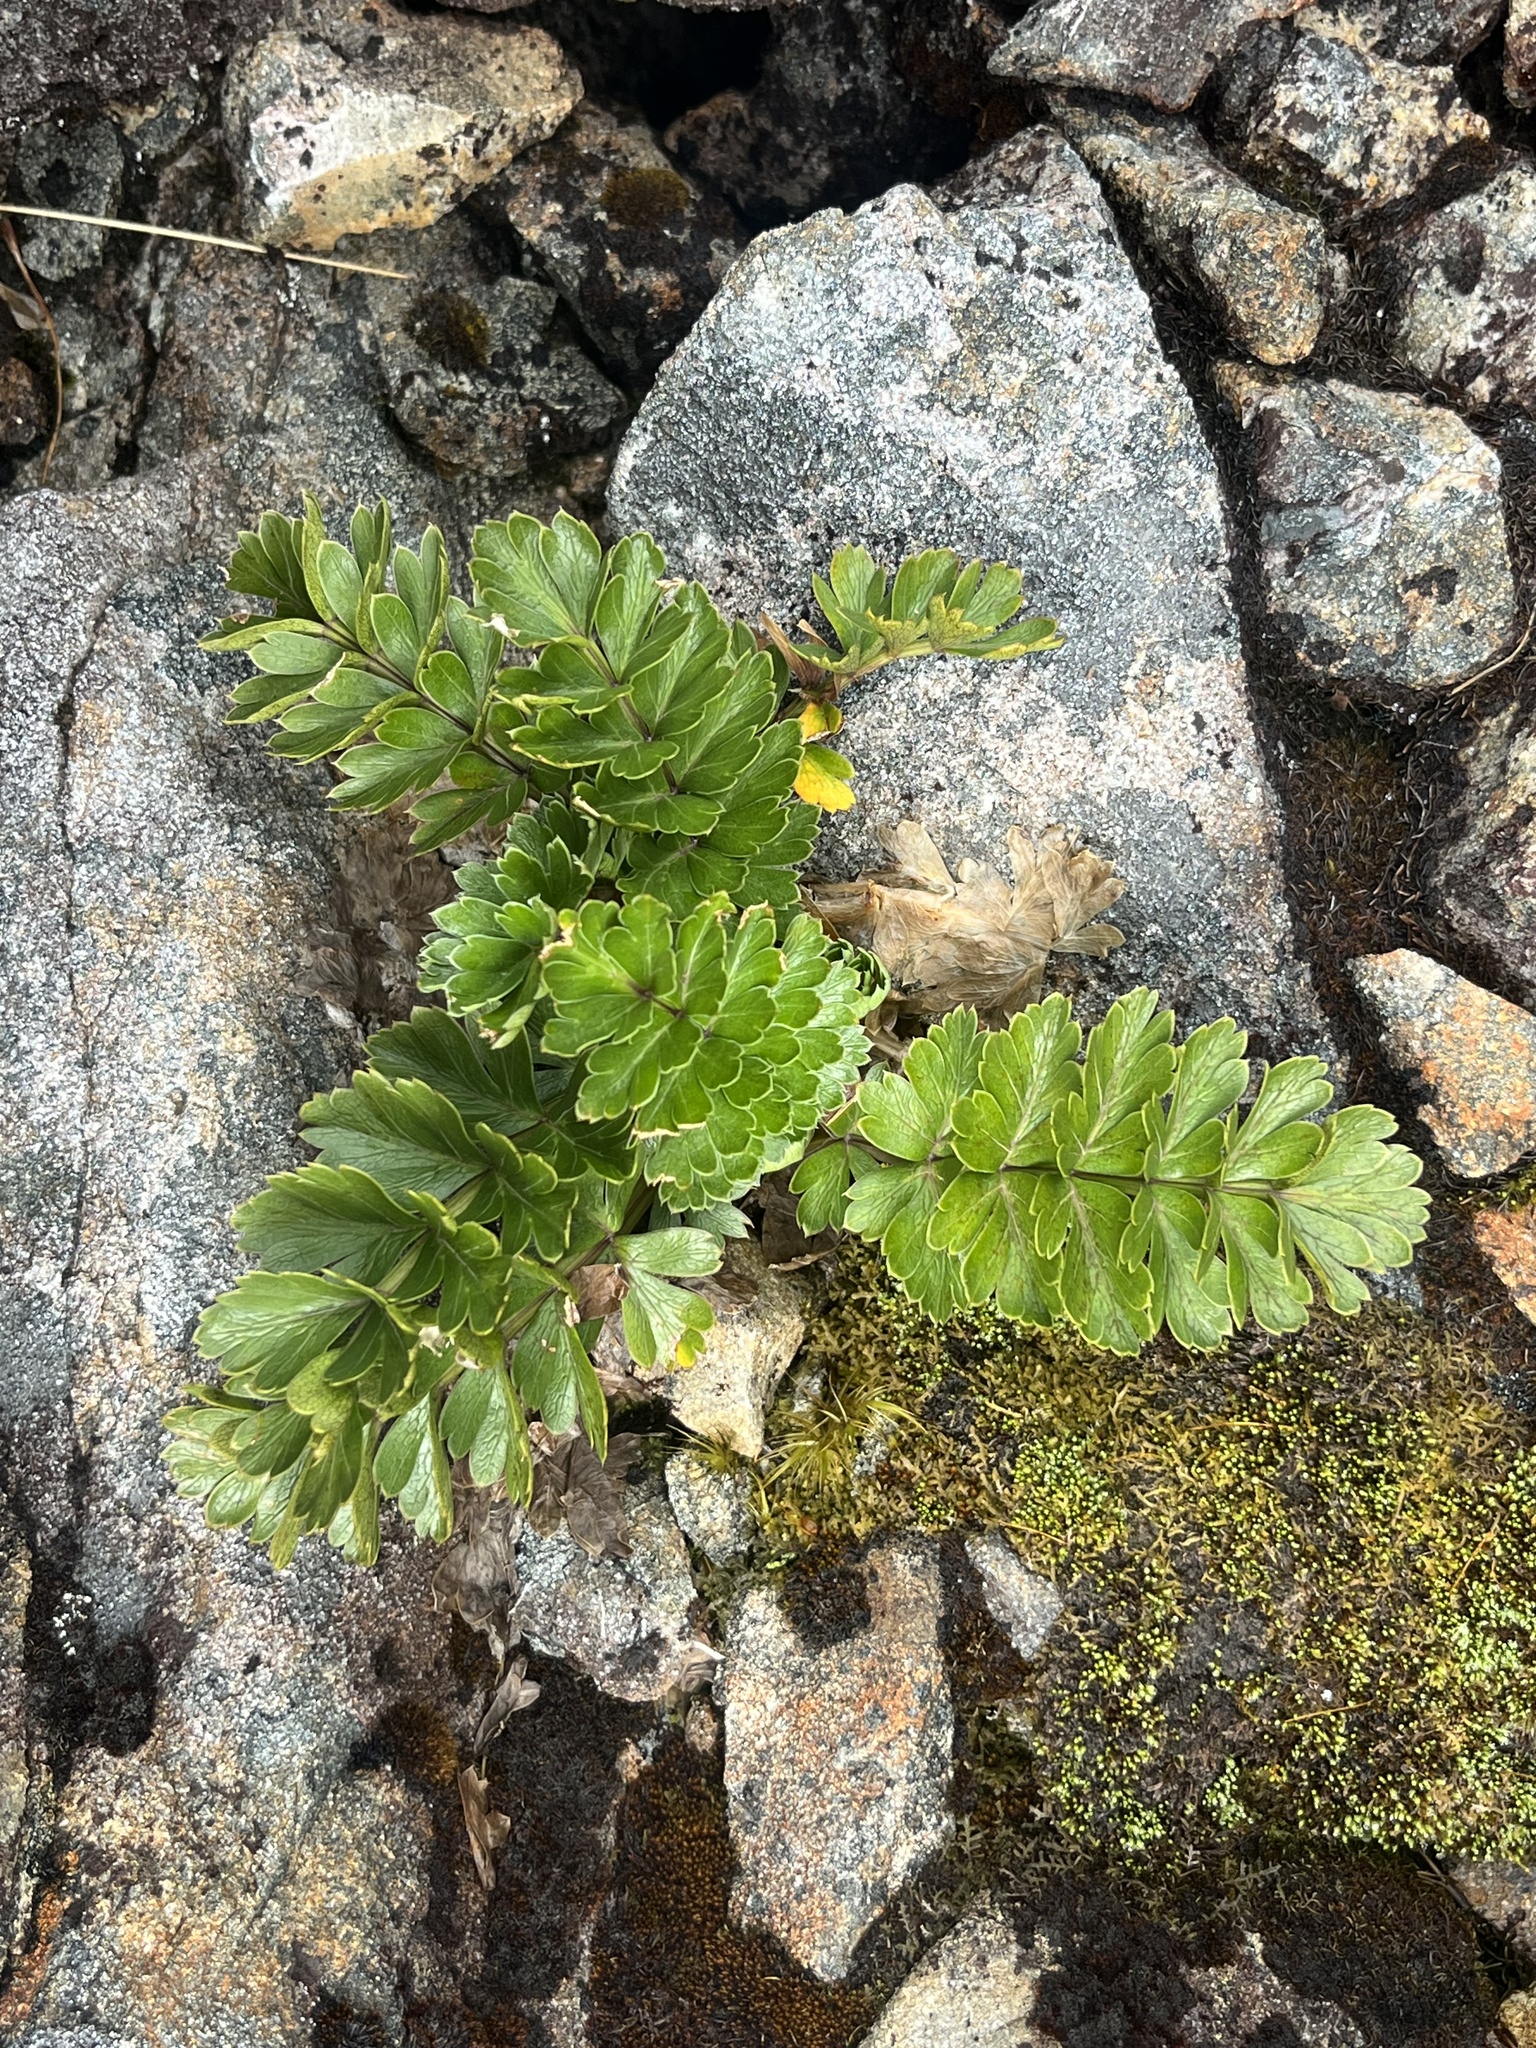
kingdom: Plantae
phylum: Tracheophyta
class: Magnoliopsida
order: Apiales
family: Apiaceae
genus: Anisotome
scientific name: Anisotome pilifera
